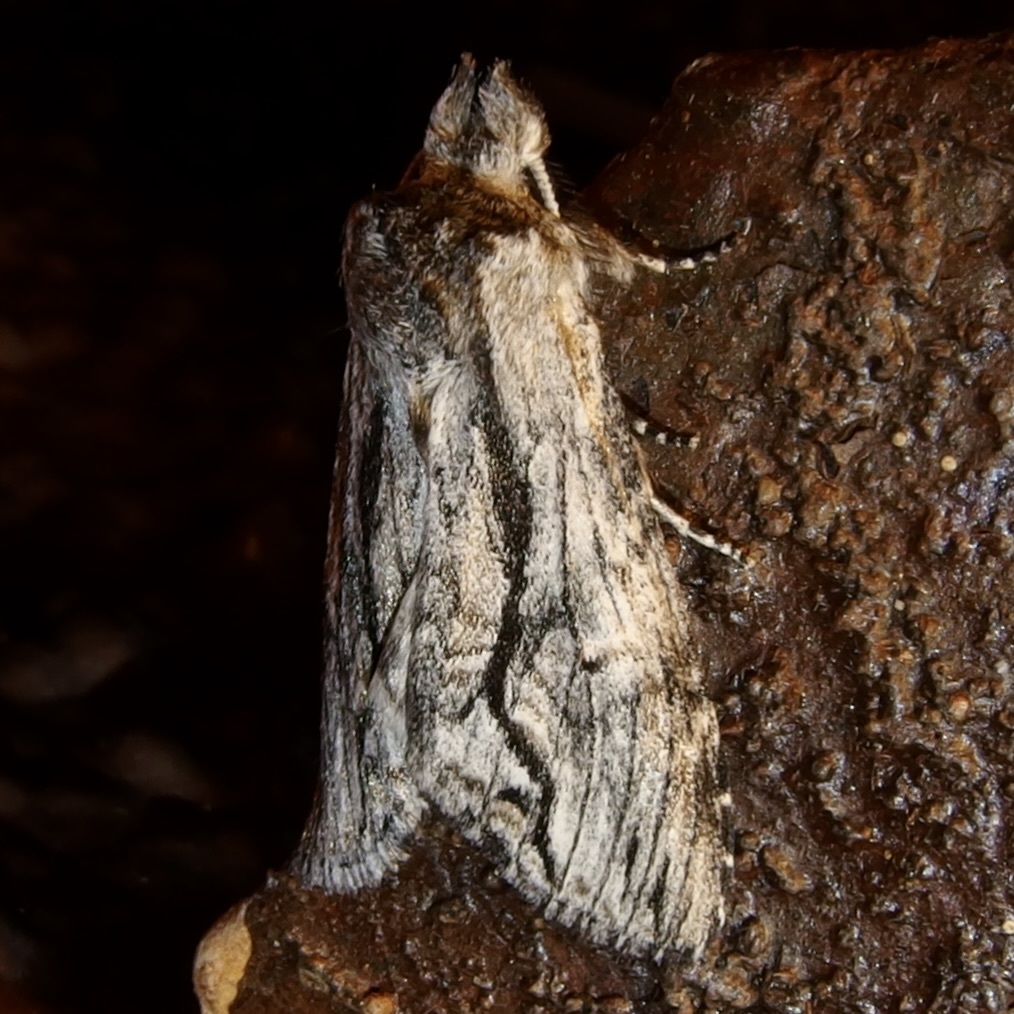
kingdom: Animalia
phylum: Arthropoda
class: Insecta
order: Lepidoptera
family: Notodontidae
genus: Notela
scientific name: Notela jaliscana
